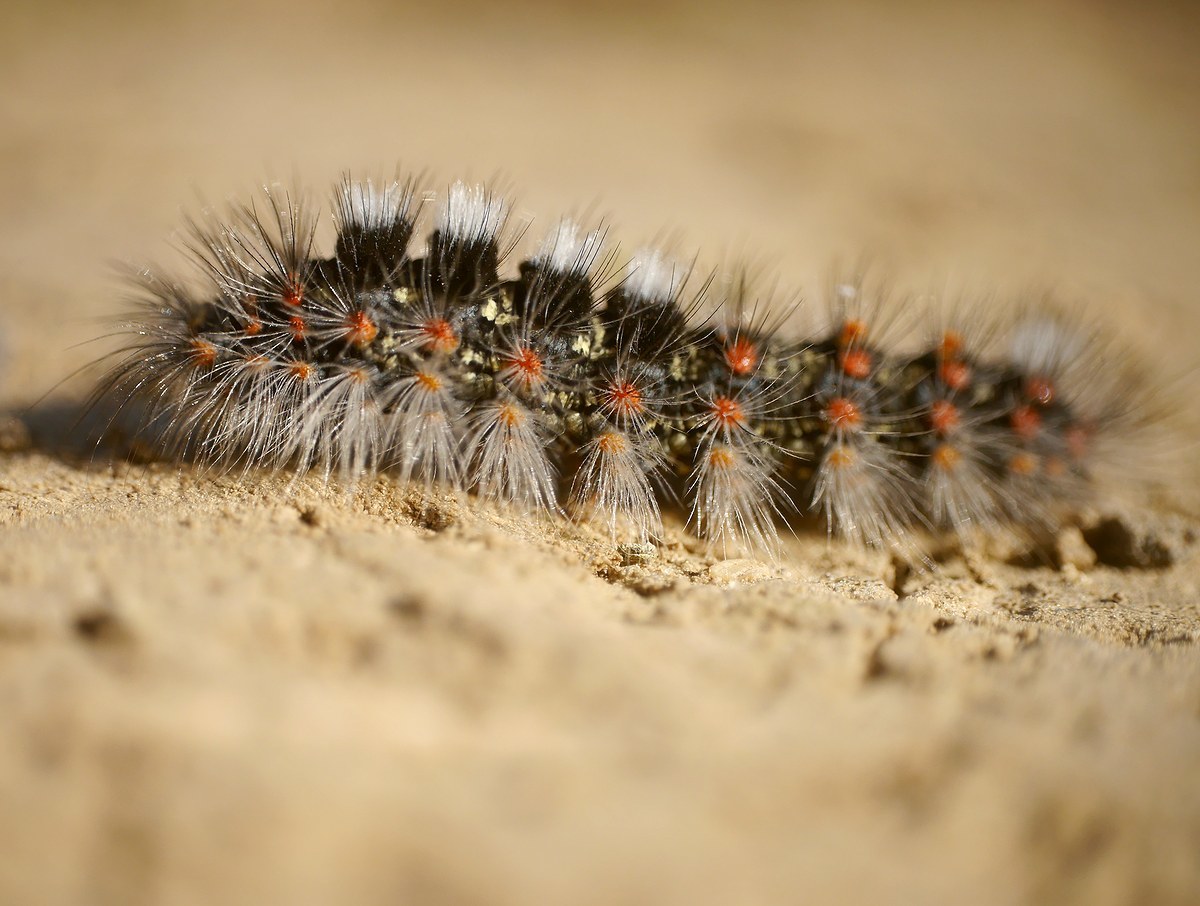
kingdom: Animalia
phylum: Arthropoda
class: Insecta
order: Lepidoptera
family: Erebidae
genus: Orgyia
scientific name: Orgyia dubia
